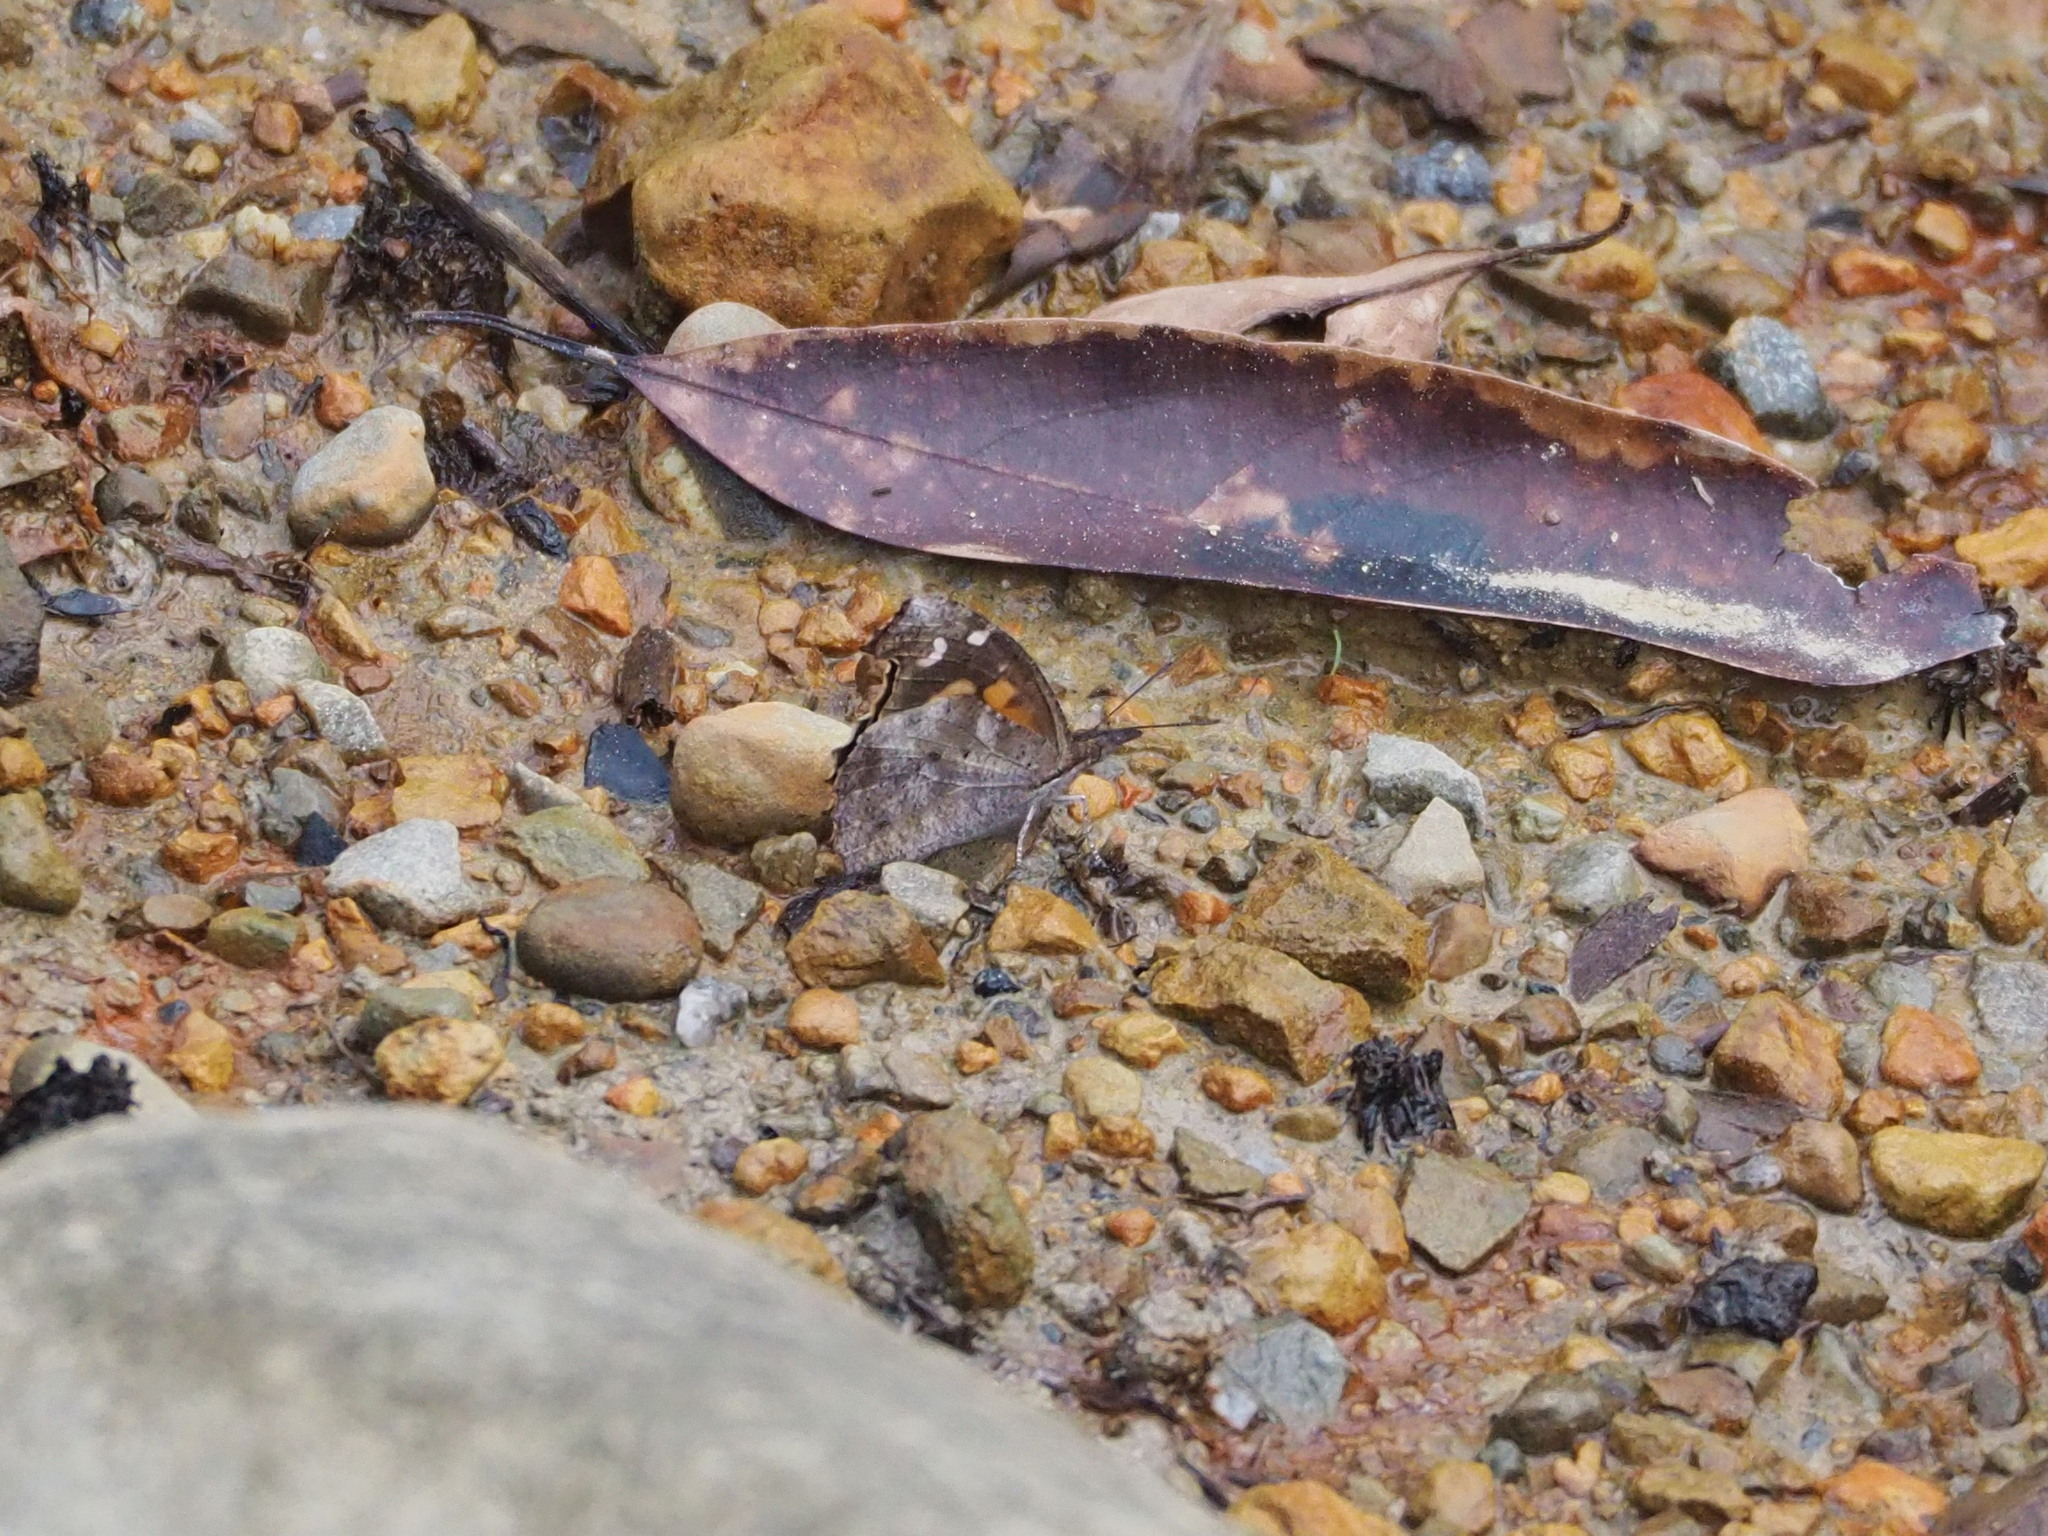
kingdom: Animalia
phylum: Arthropoda
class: Insecta
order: Lepidoptera
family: Nymphalidae
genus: Libythea
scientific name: Libythea lepita
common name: Common beak
